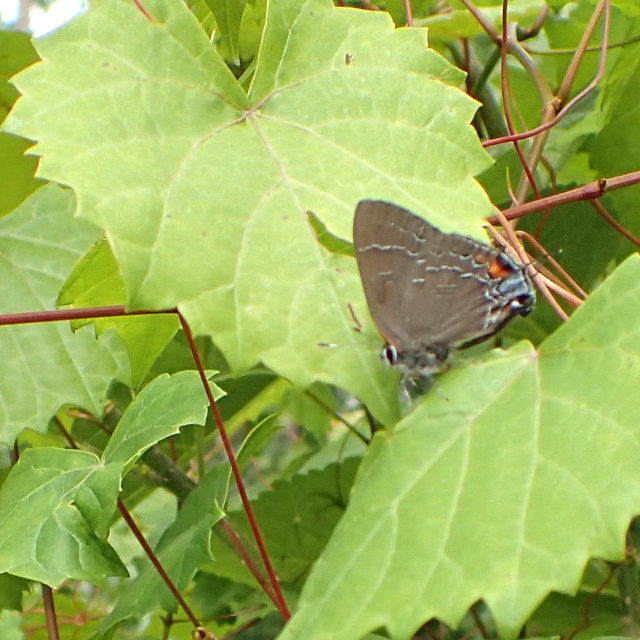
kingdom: Animalia
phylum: Arthropoda
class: Insecta
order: Lepidoptera
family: Lycaenidae
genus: Satyrium
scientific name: Satyrium calanus
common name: Banded hairstreak
